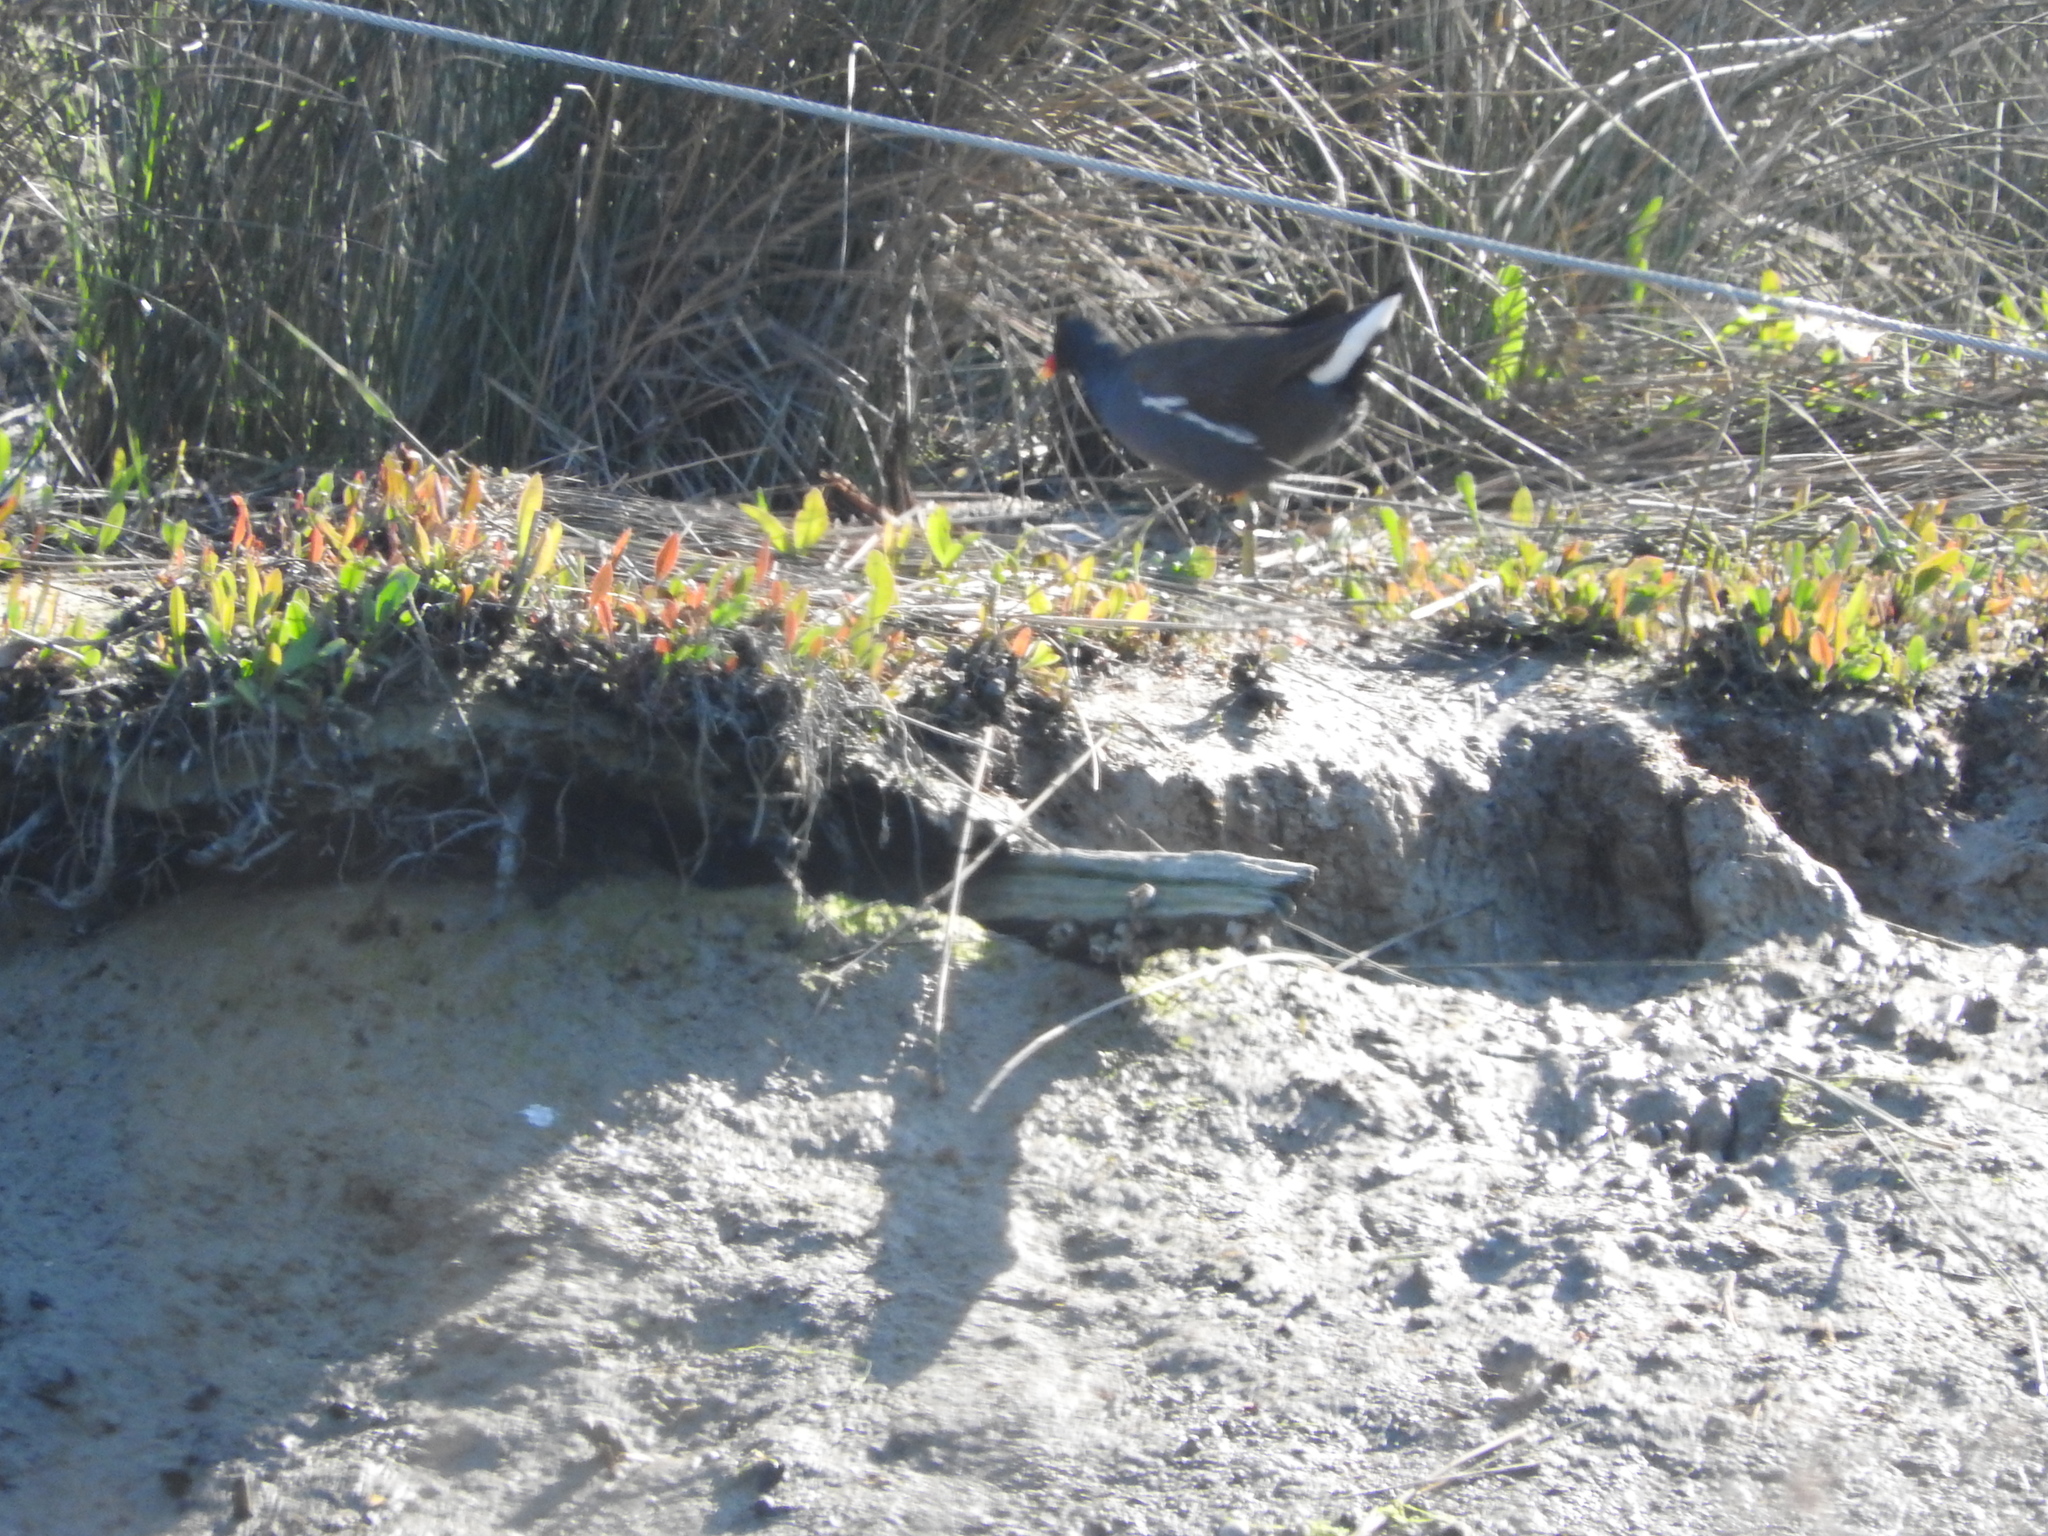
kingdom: Animalia
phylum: Chordata
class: Aves
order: Gruiformes
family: Rallidae
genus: Gallinula
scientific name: Gallinula chloropus
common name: Common moorhen
